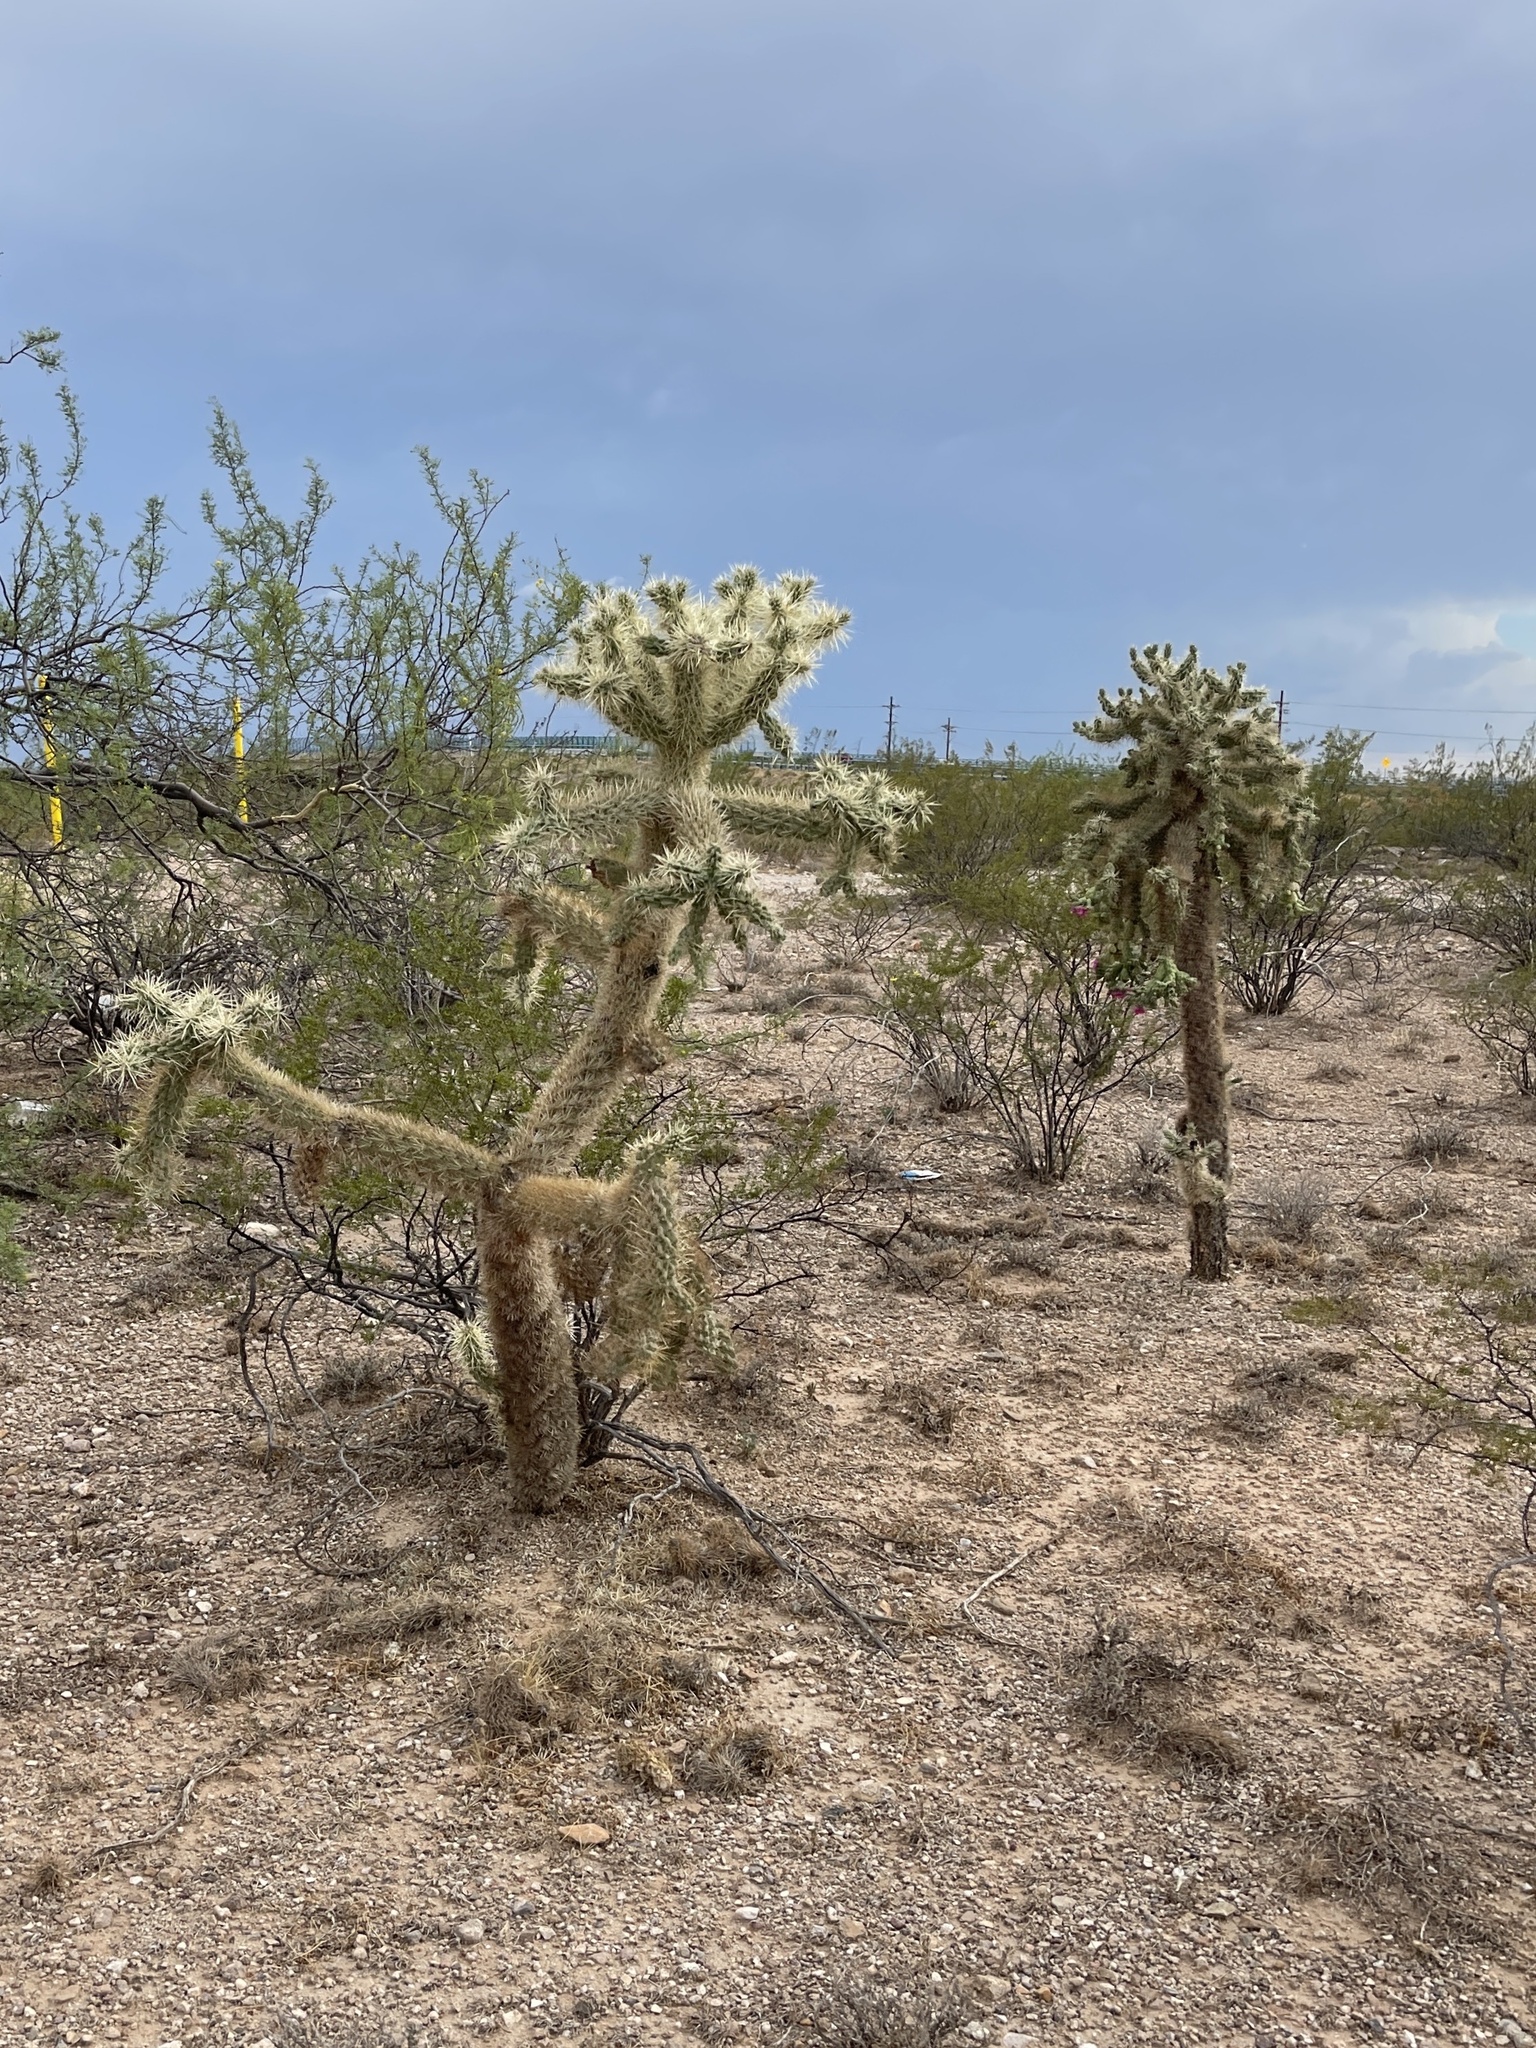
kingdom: Plantae
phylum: Tracheophyta
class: Magnoliopsida
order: Caryophyllales
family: Cactaceae
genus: Cylindropuntia
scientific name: Cylindropuntia fulgida
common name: Jumping cholla
